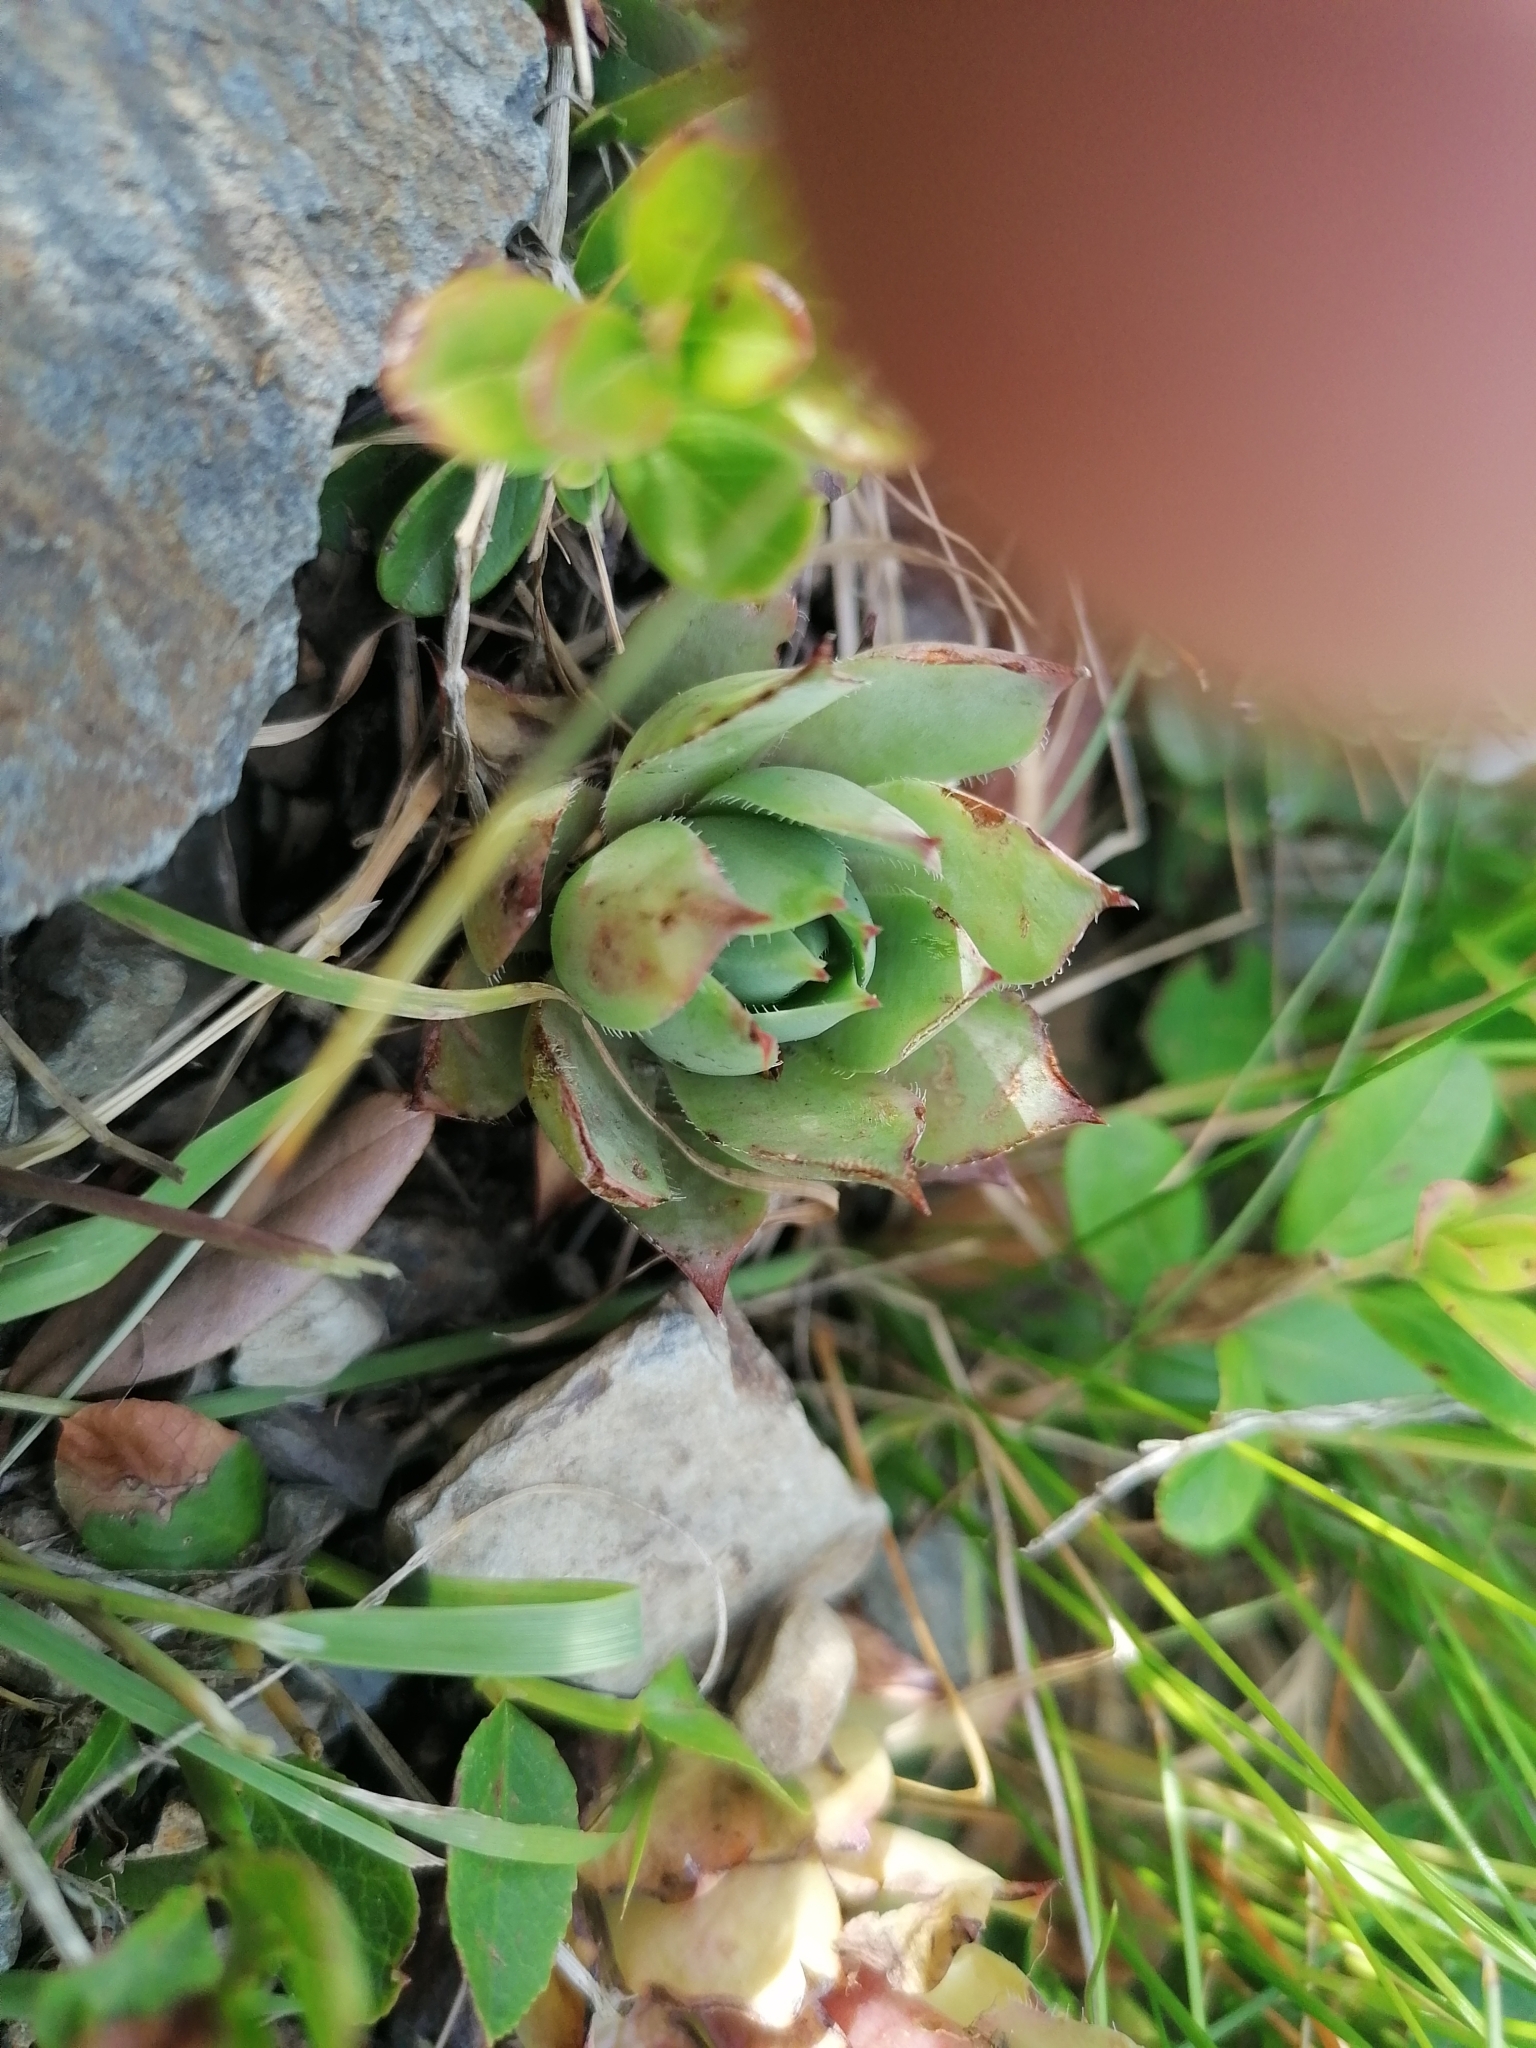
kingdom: Plantae
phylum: Tracheophyta
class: Magnoliopsida
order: Saxifragales
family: Crassulaceae
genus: Sempervivum
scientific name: Sempervivum wulfenii
